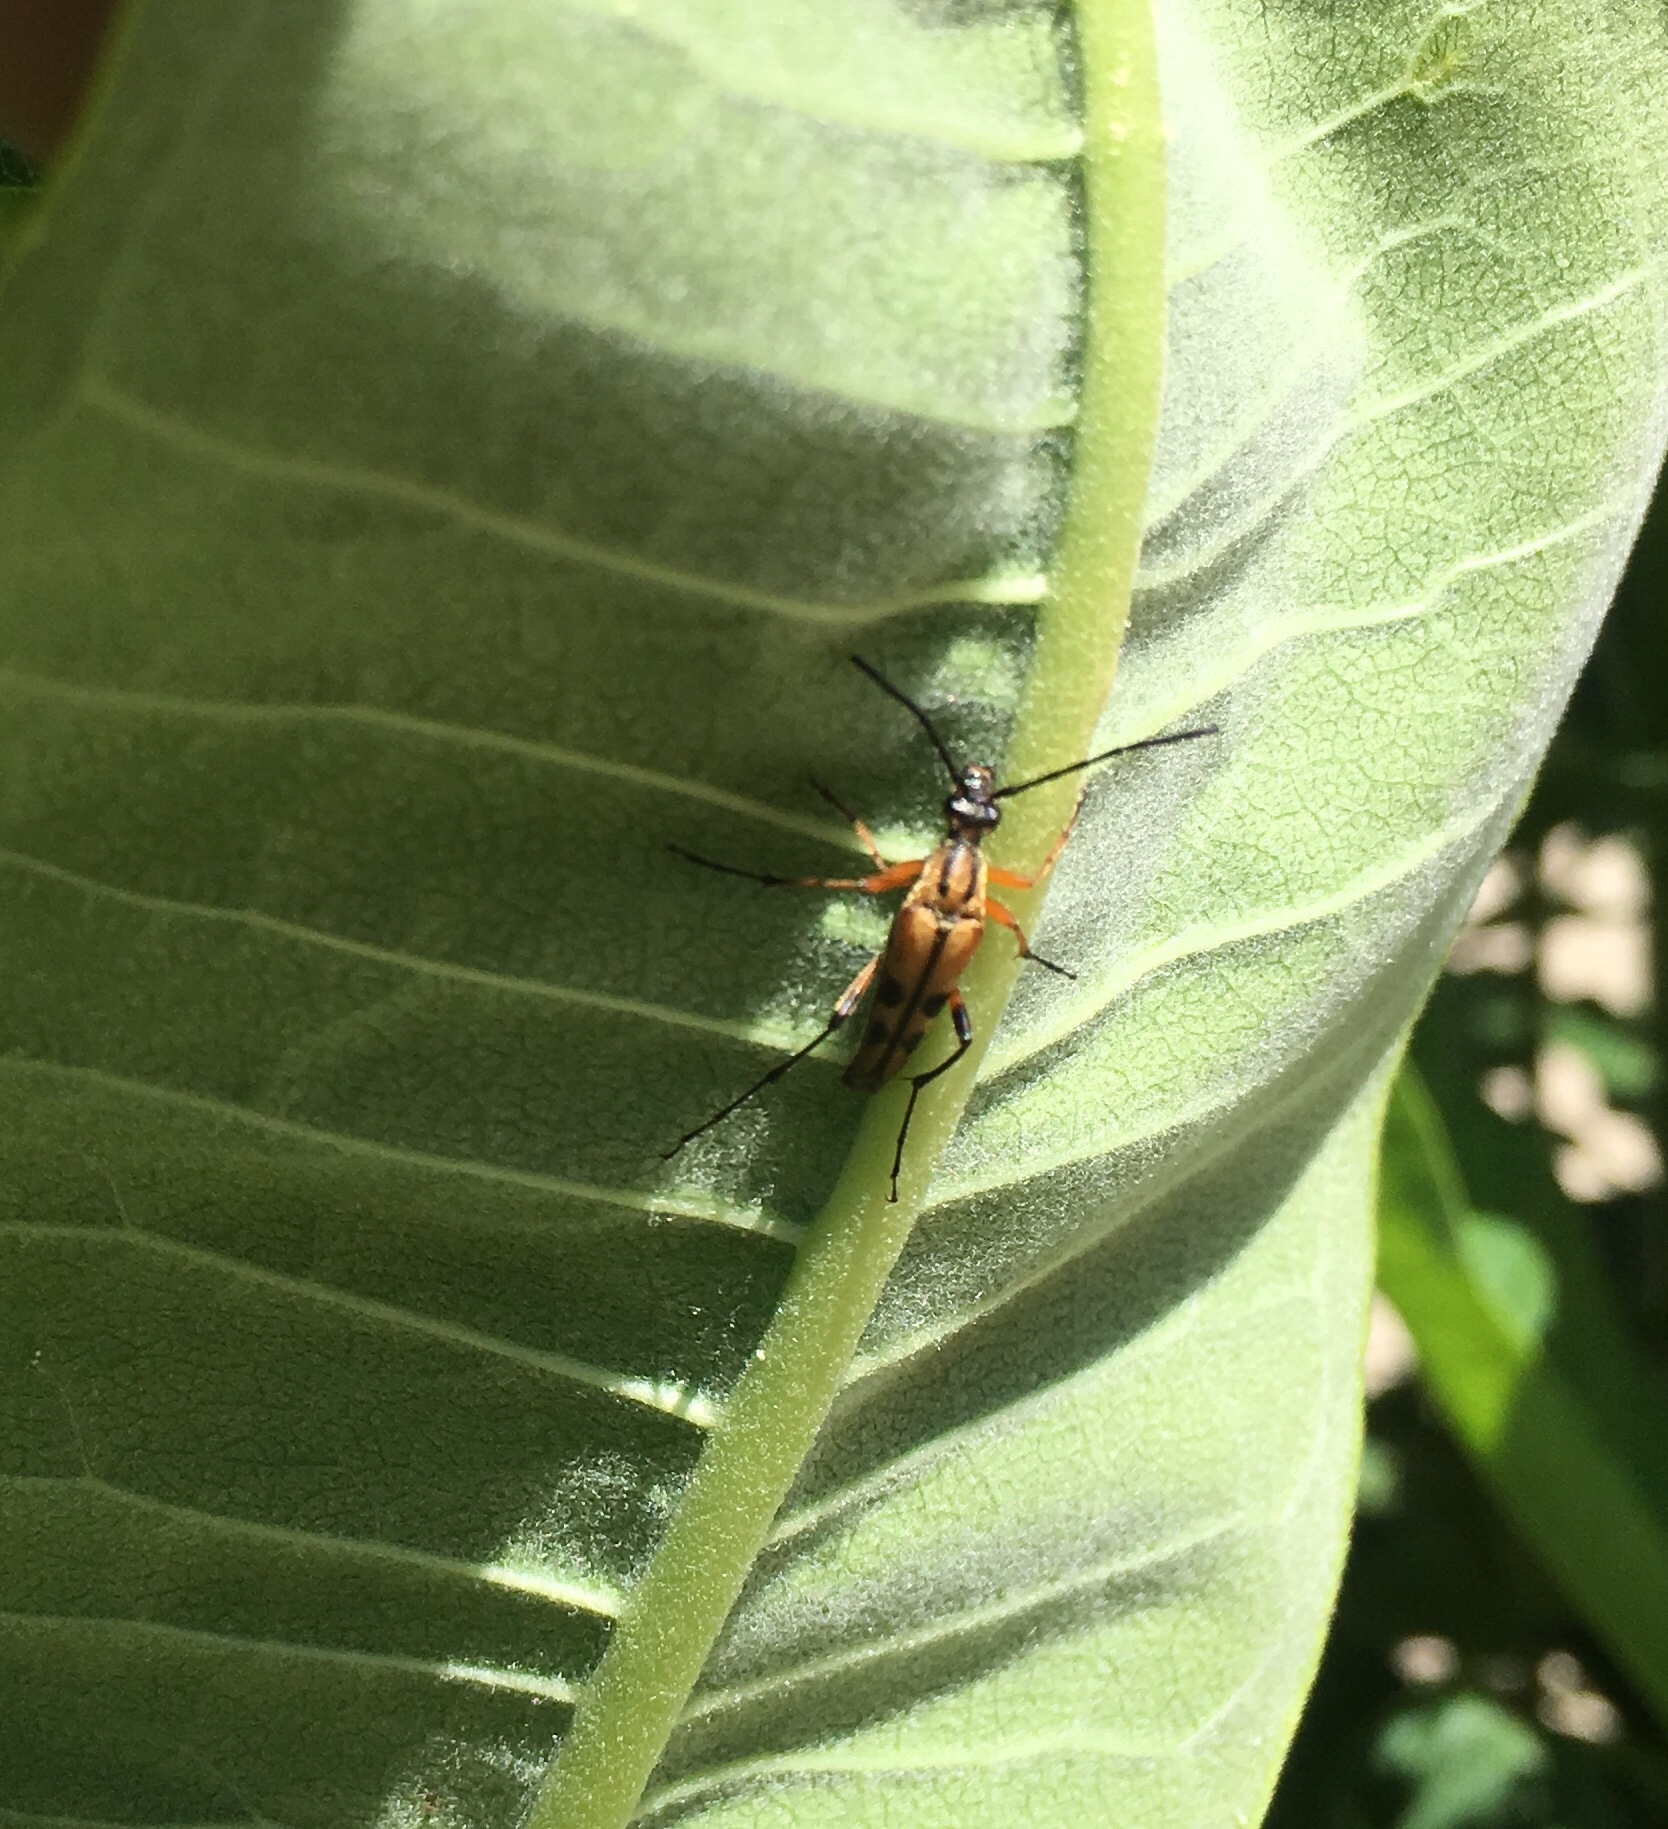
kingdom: Animalia
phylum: Arthropoda
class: Insecta
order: Coleoptera
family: Cerambycidae
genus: Strangalia
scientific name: Strangalia famelica
